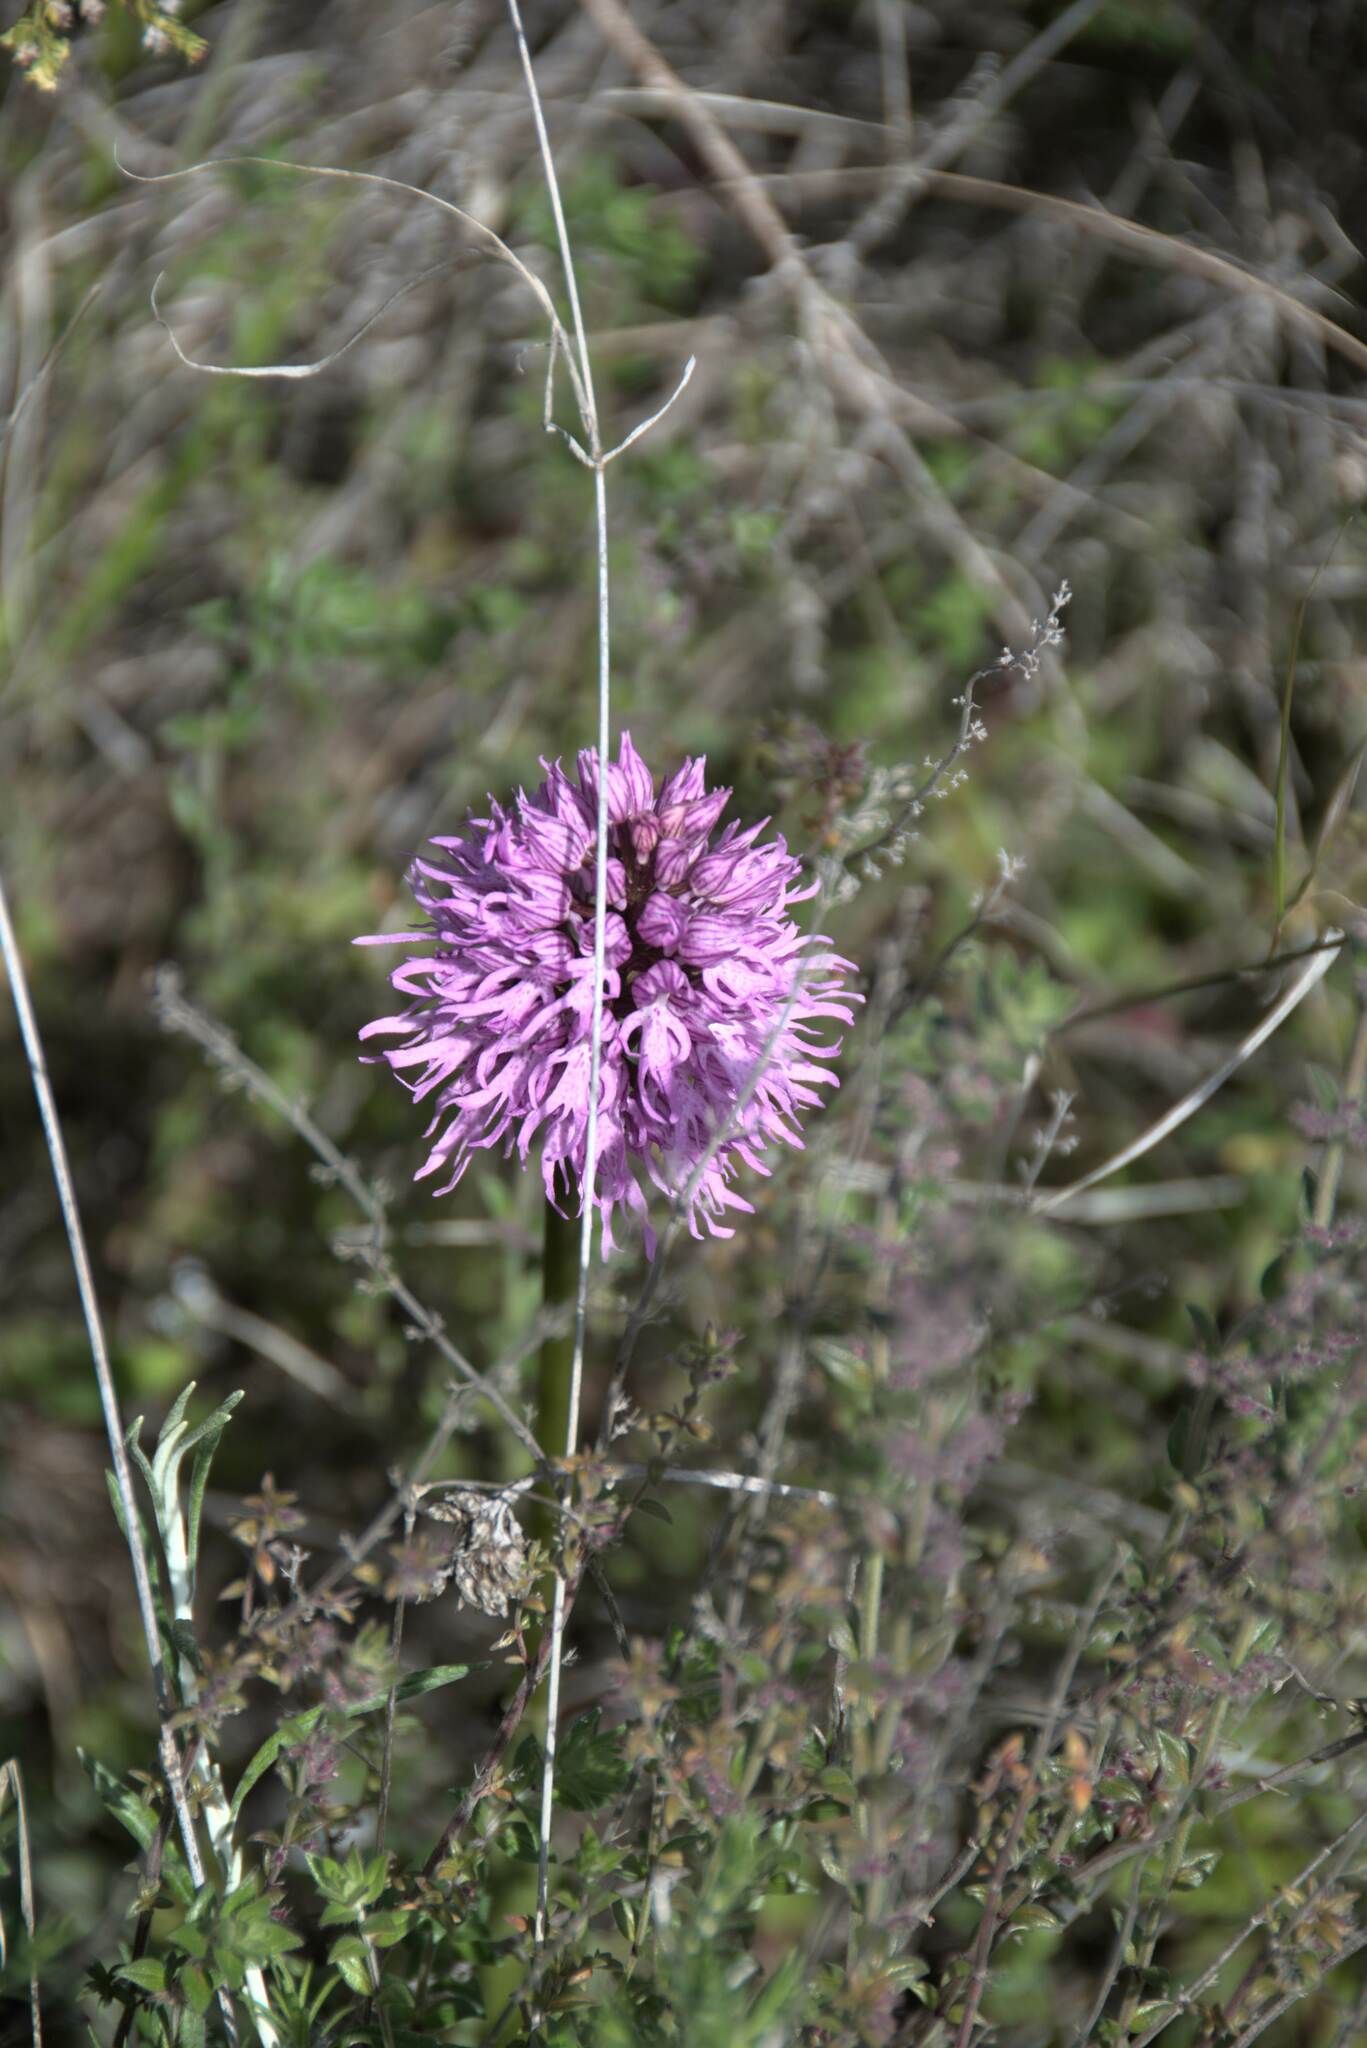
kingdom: Plantae
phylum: Tracheophyta
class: Liliopsida
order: Asparagales
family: Orchidaceae
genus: Orchis
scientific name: Orchis italica
